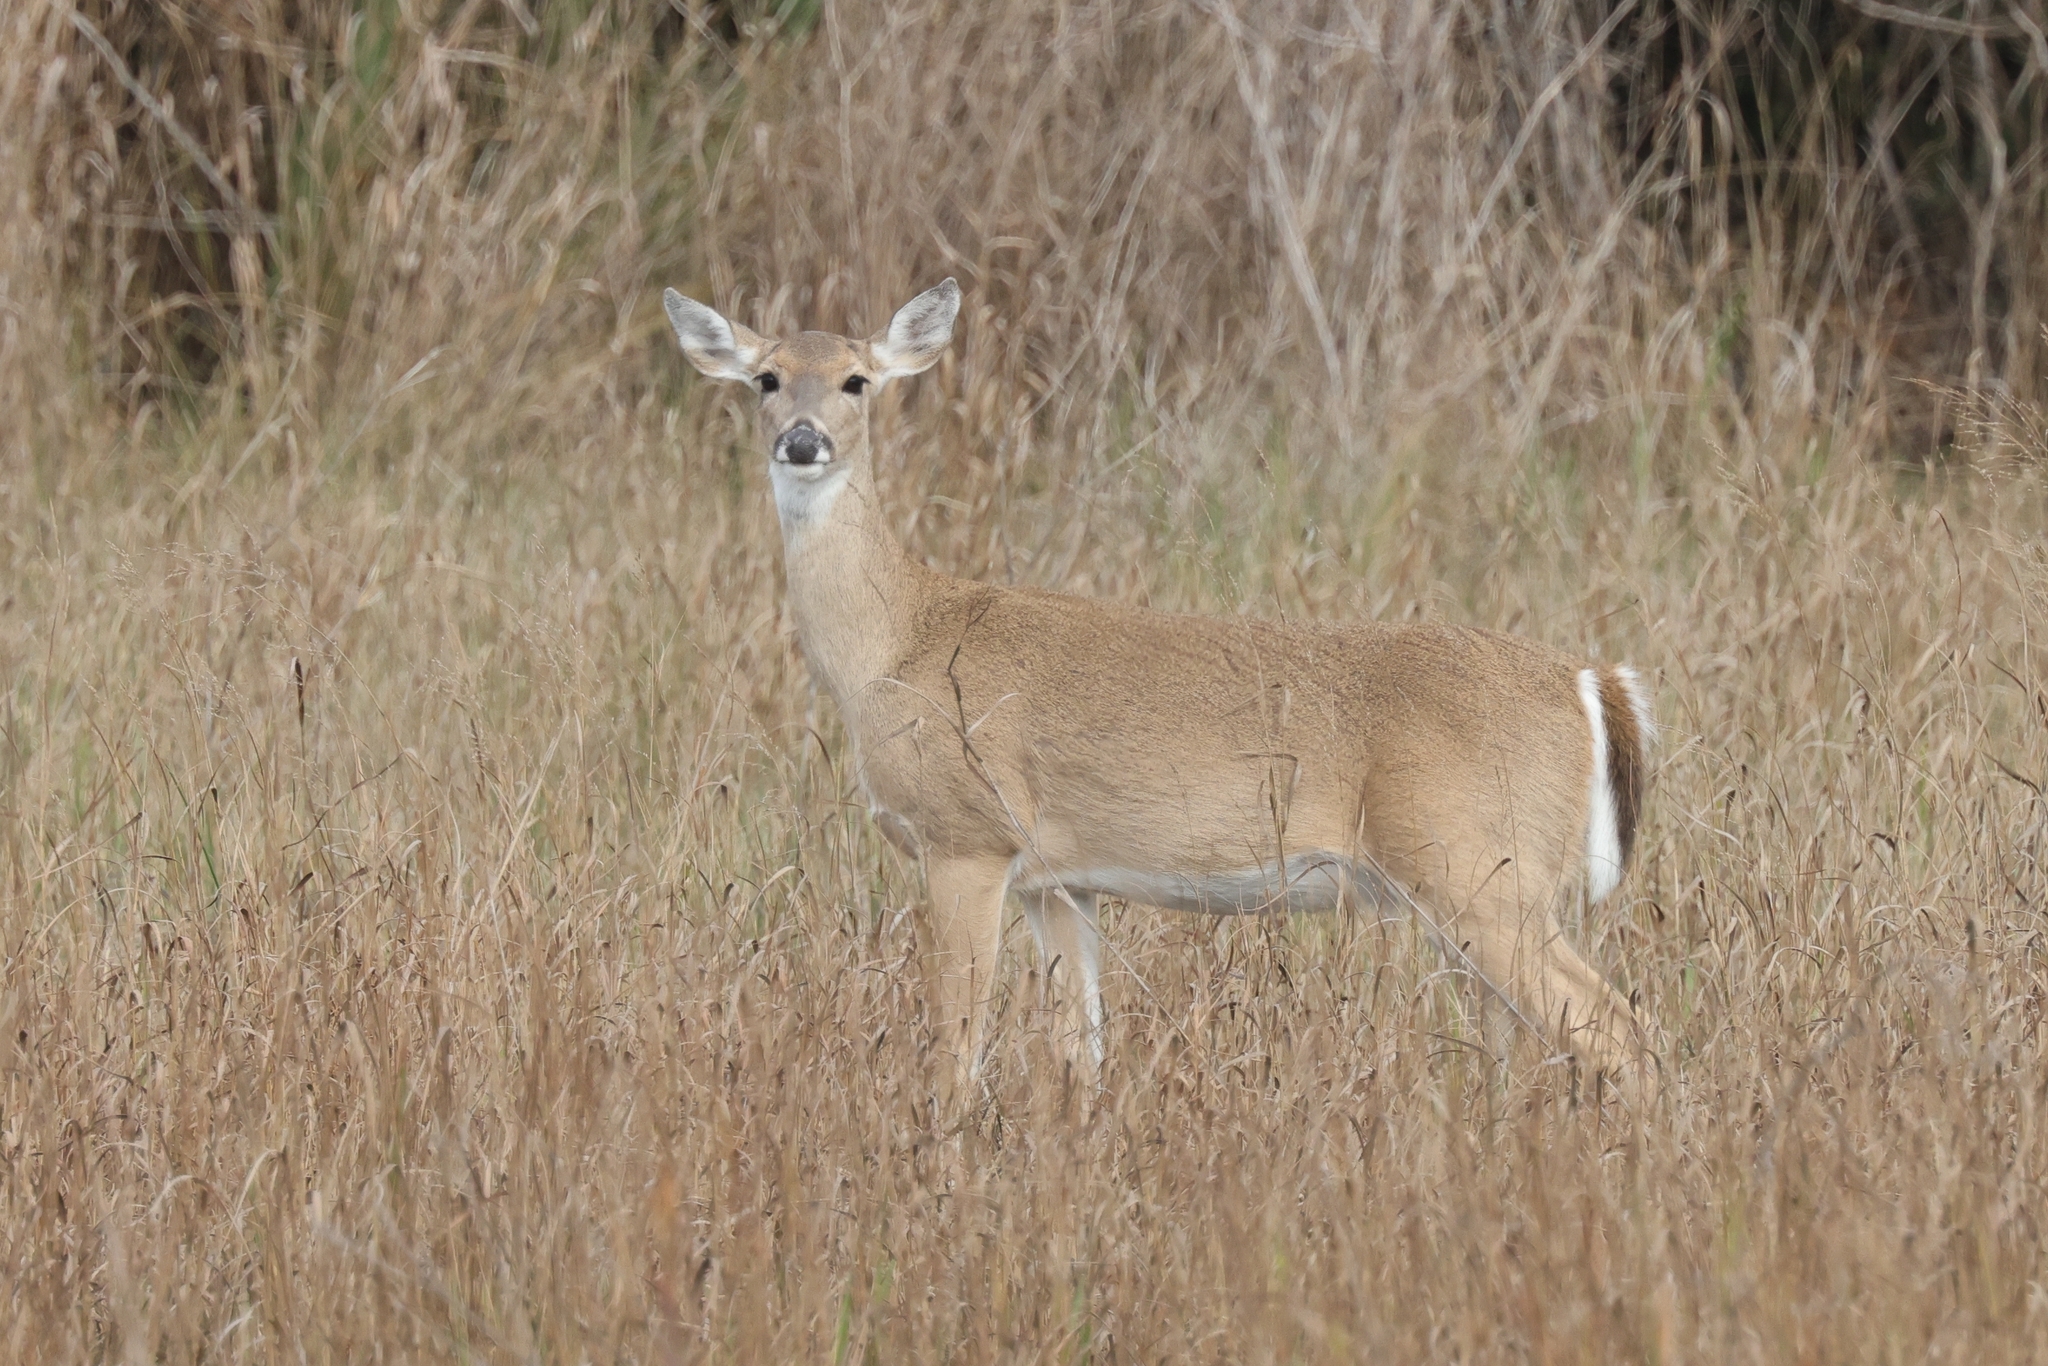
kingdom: Animalia
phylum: Chordata
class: Mammalia
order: Artiodactyla
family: Cervidae
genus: Odocoileus
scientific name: Odocoileus virginianus
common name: White-tailed deer
